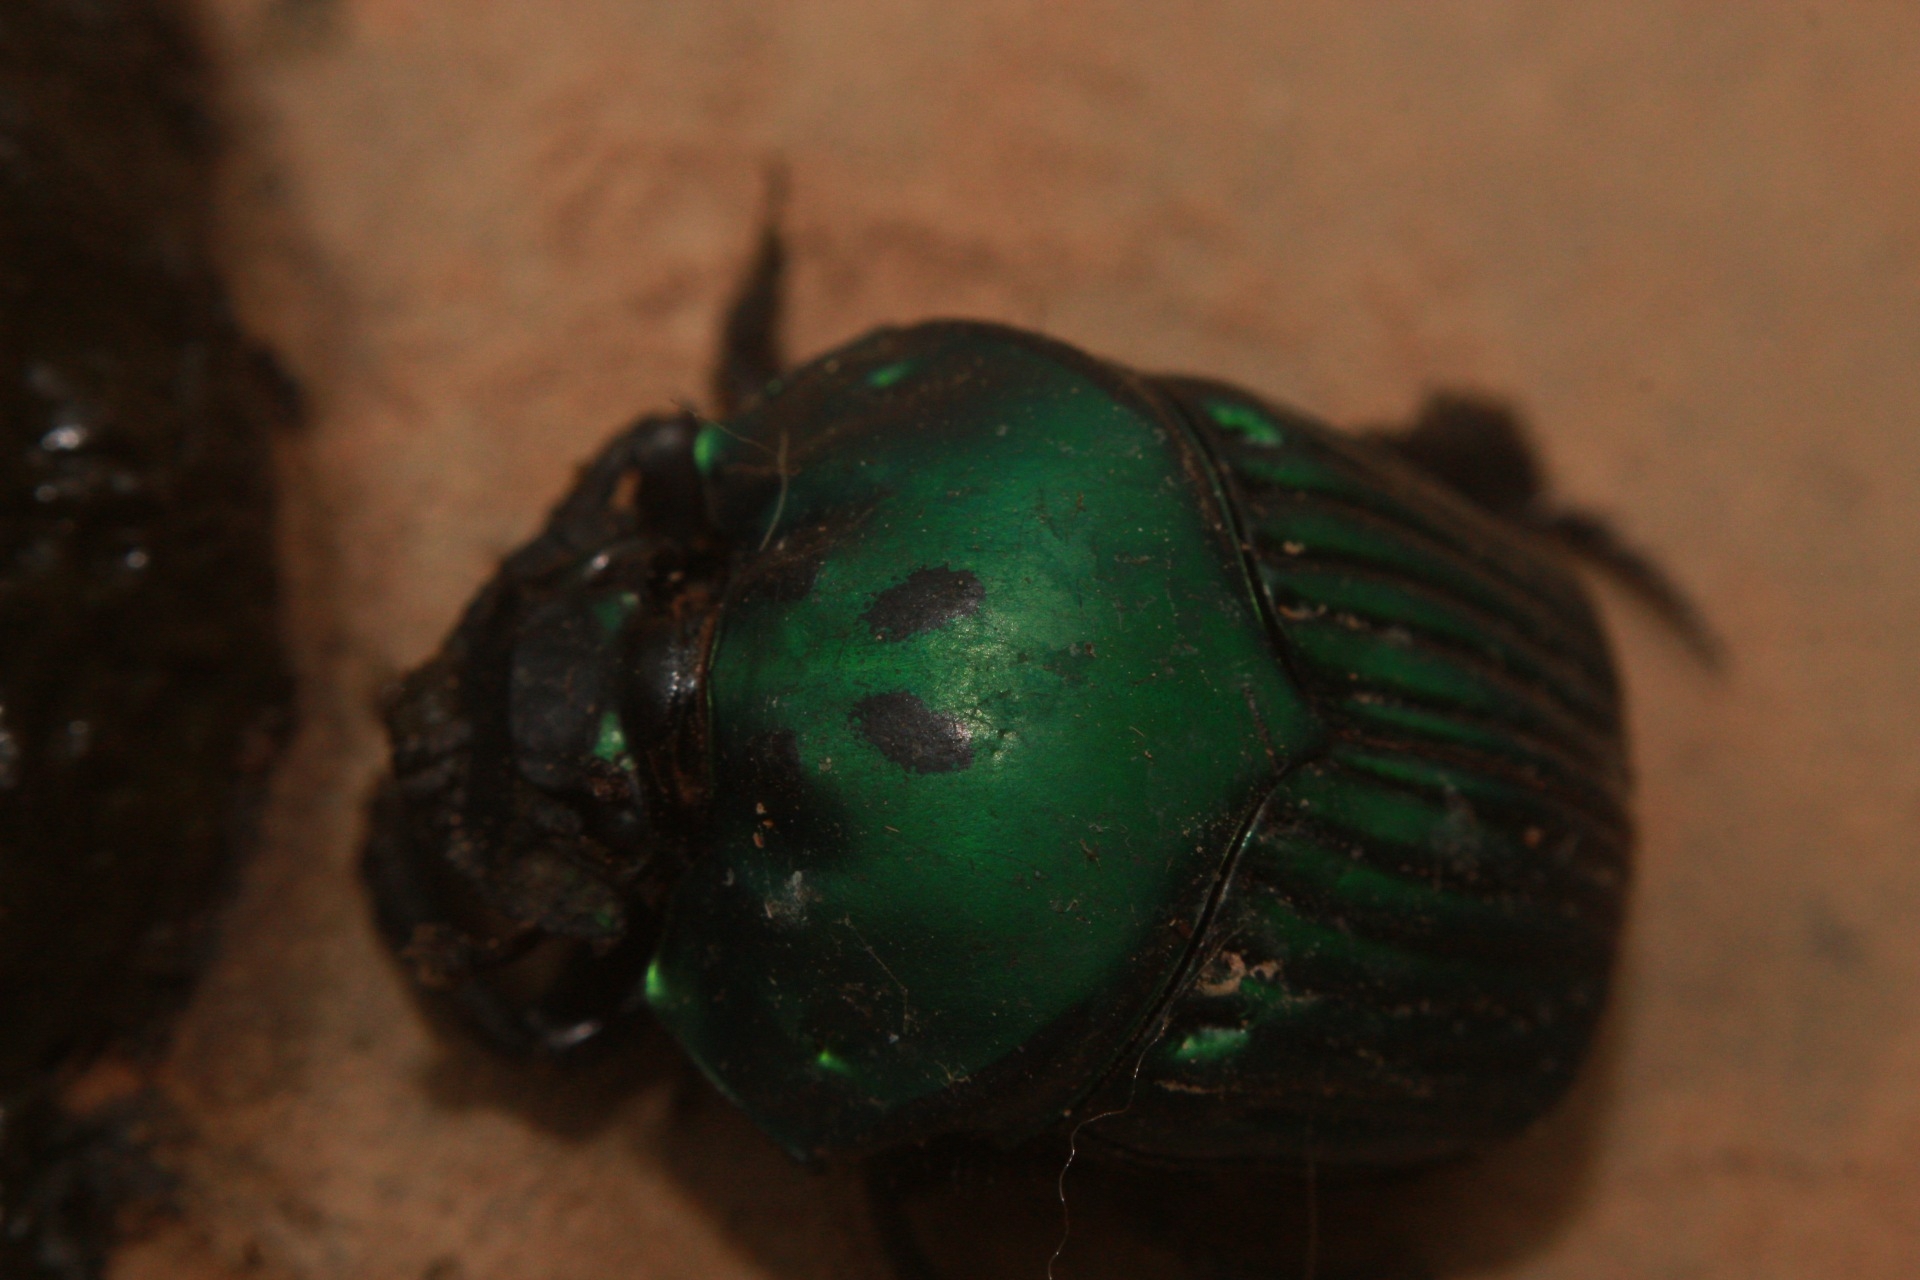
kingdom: Animalia
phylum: Arthropoda
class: Insecta
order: Coleoptera
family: Scarabaeidae
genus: Oxysternon
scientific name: Oxysternon conspicillatum
